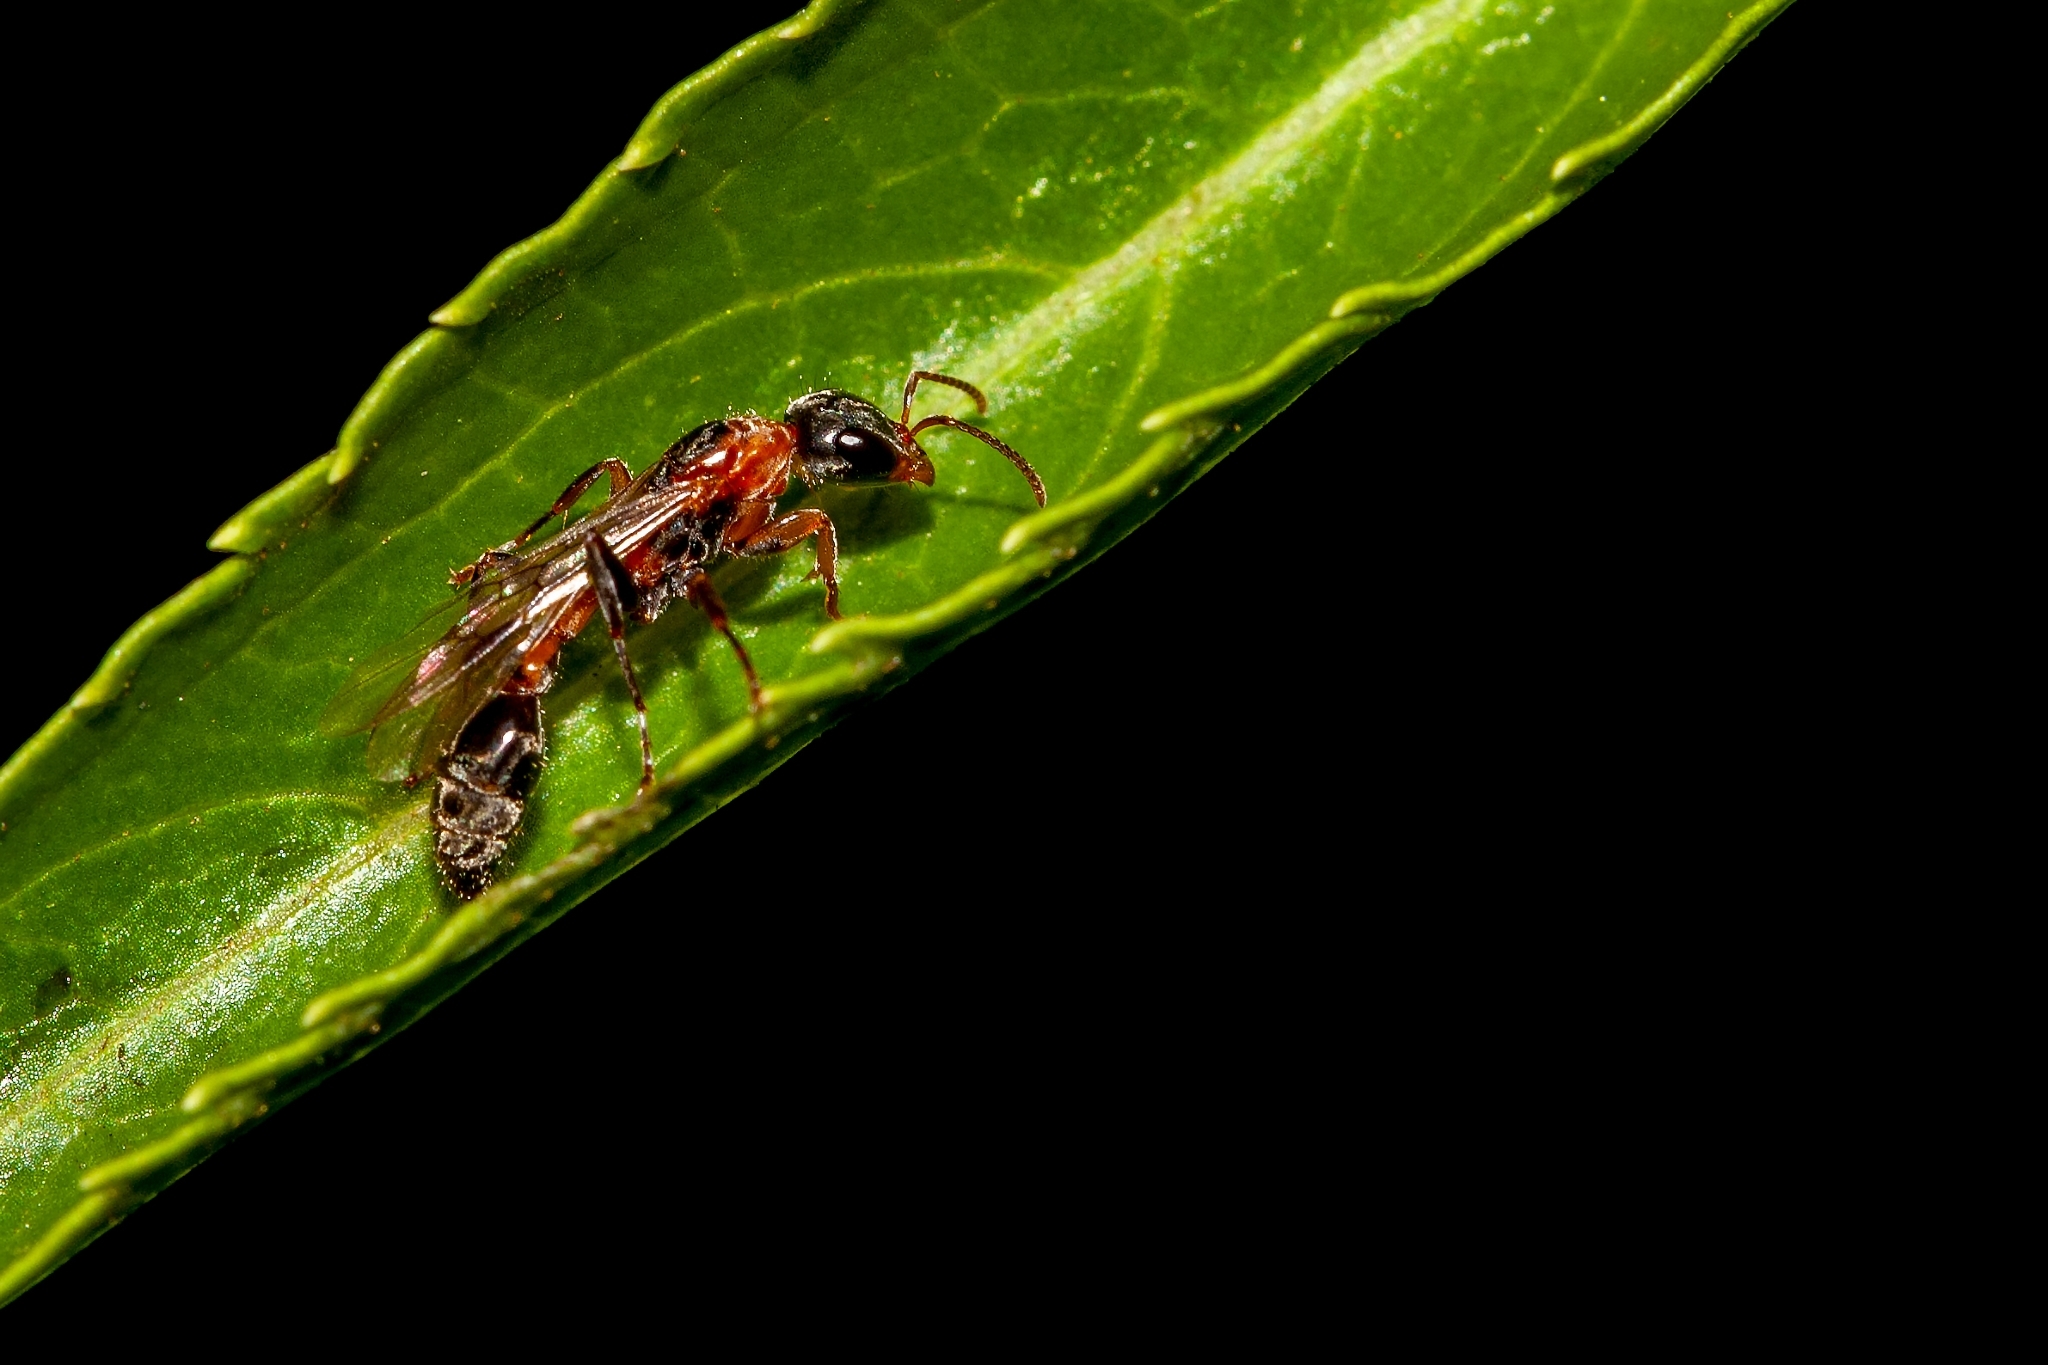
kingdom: Animalia
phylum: Arthropoda
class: Insecta
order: Hymenoptera
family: Formicidae
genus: Pseudomyrmex
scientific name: Pseudomyrmex gracilis
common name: Graceful twig ant
